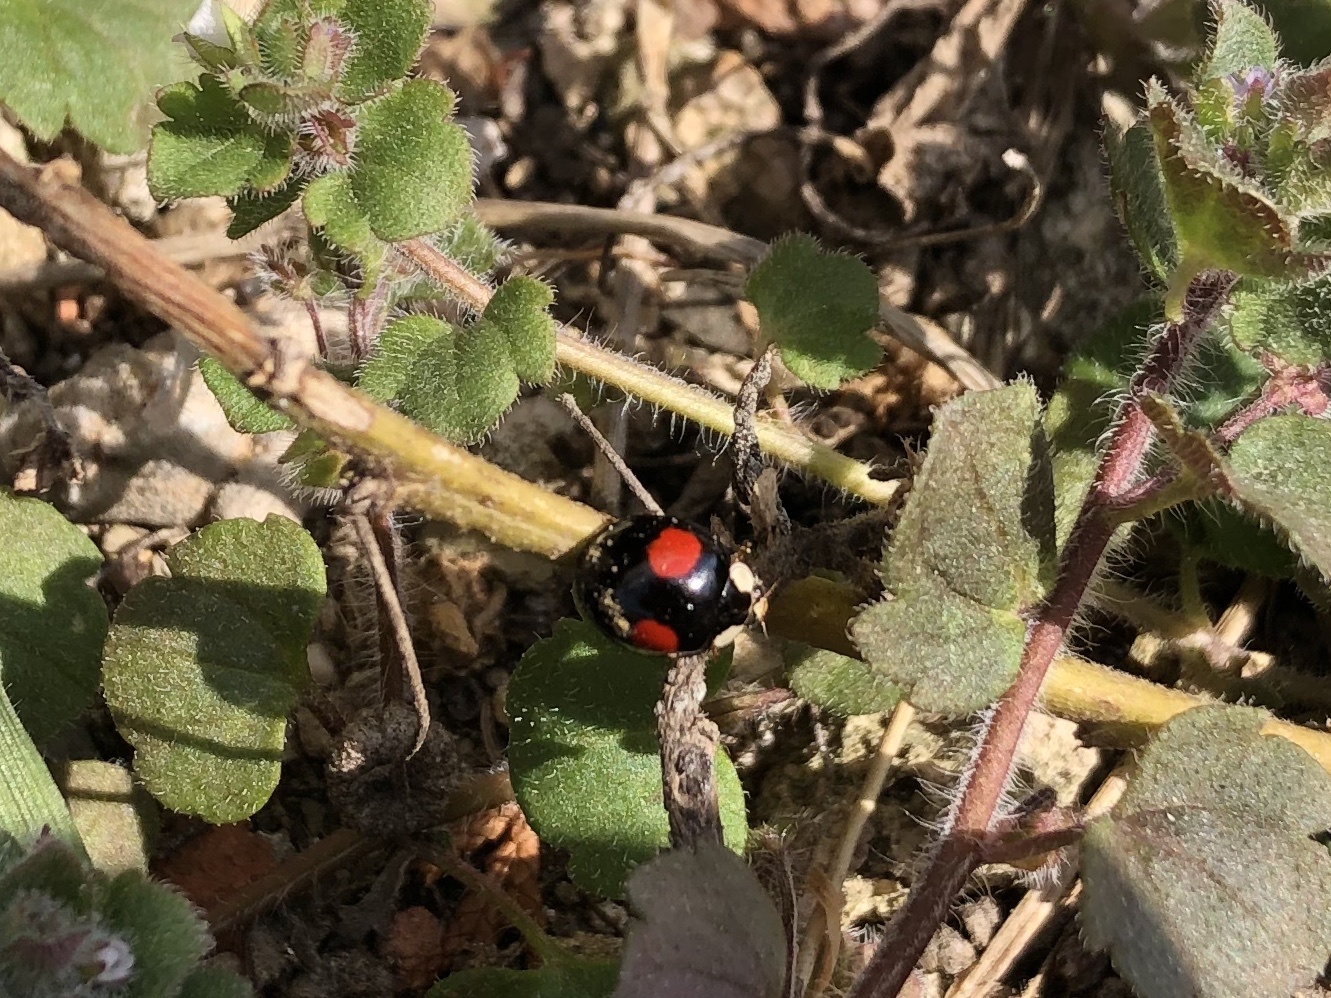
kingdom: Animalia
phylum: Arthropoda
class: Insecta
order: Coleoptera
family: Coccinellidae
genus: Harmonia
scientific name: Harmonia axyridis
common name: Harlequin ladybird
